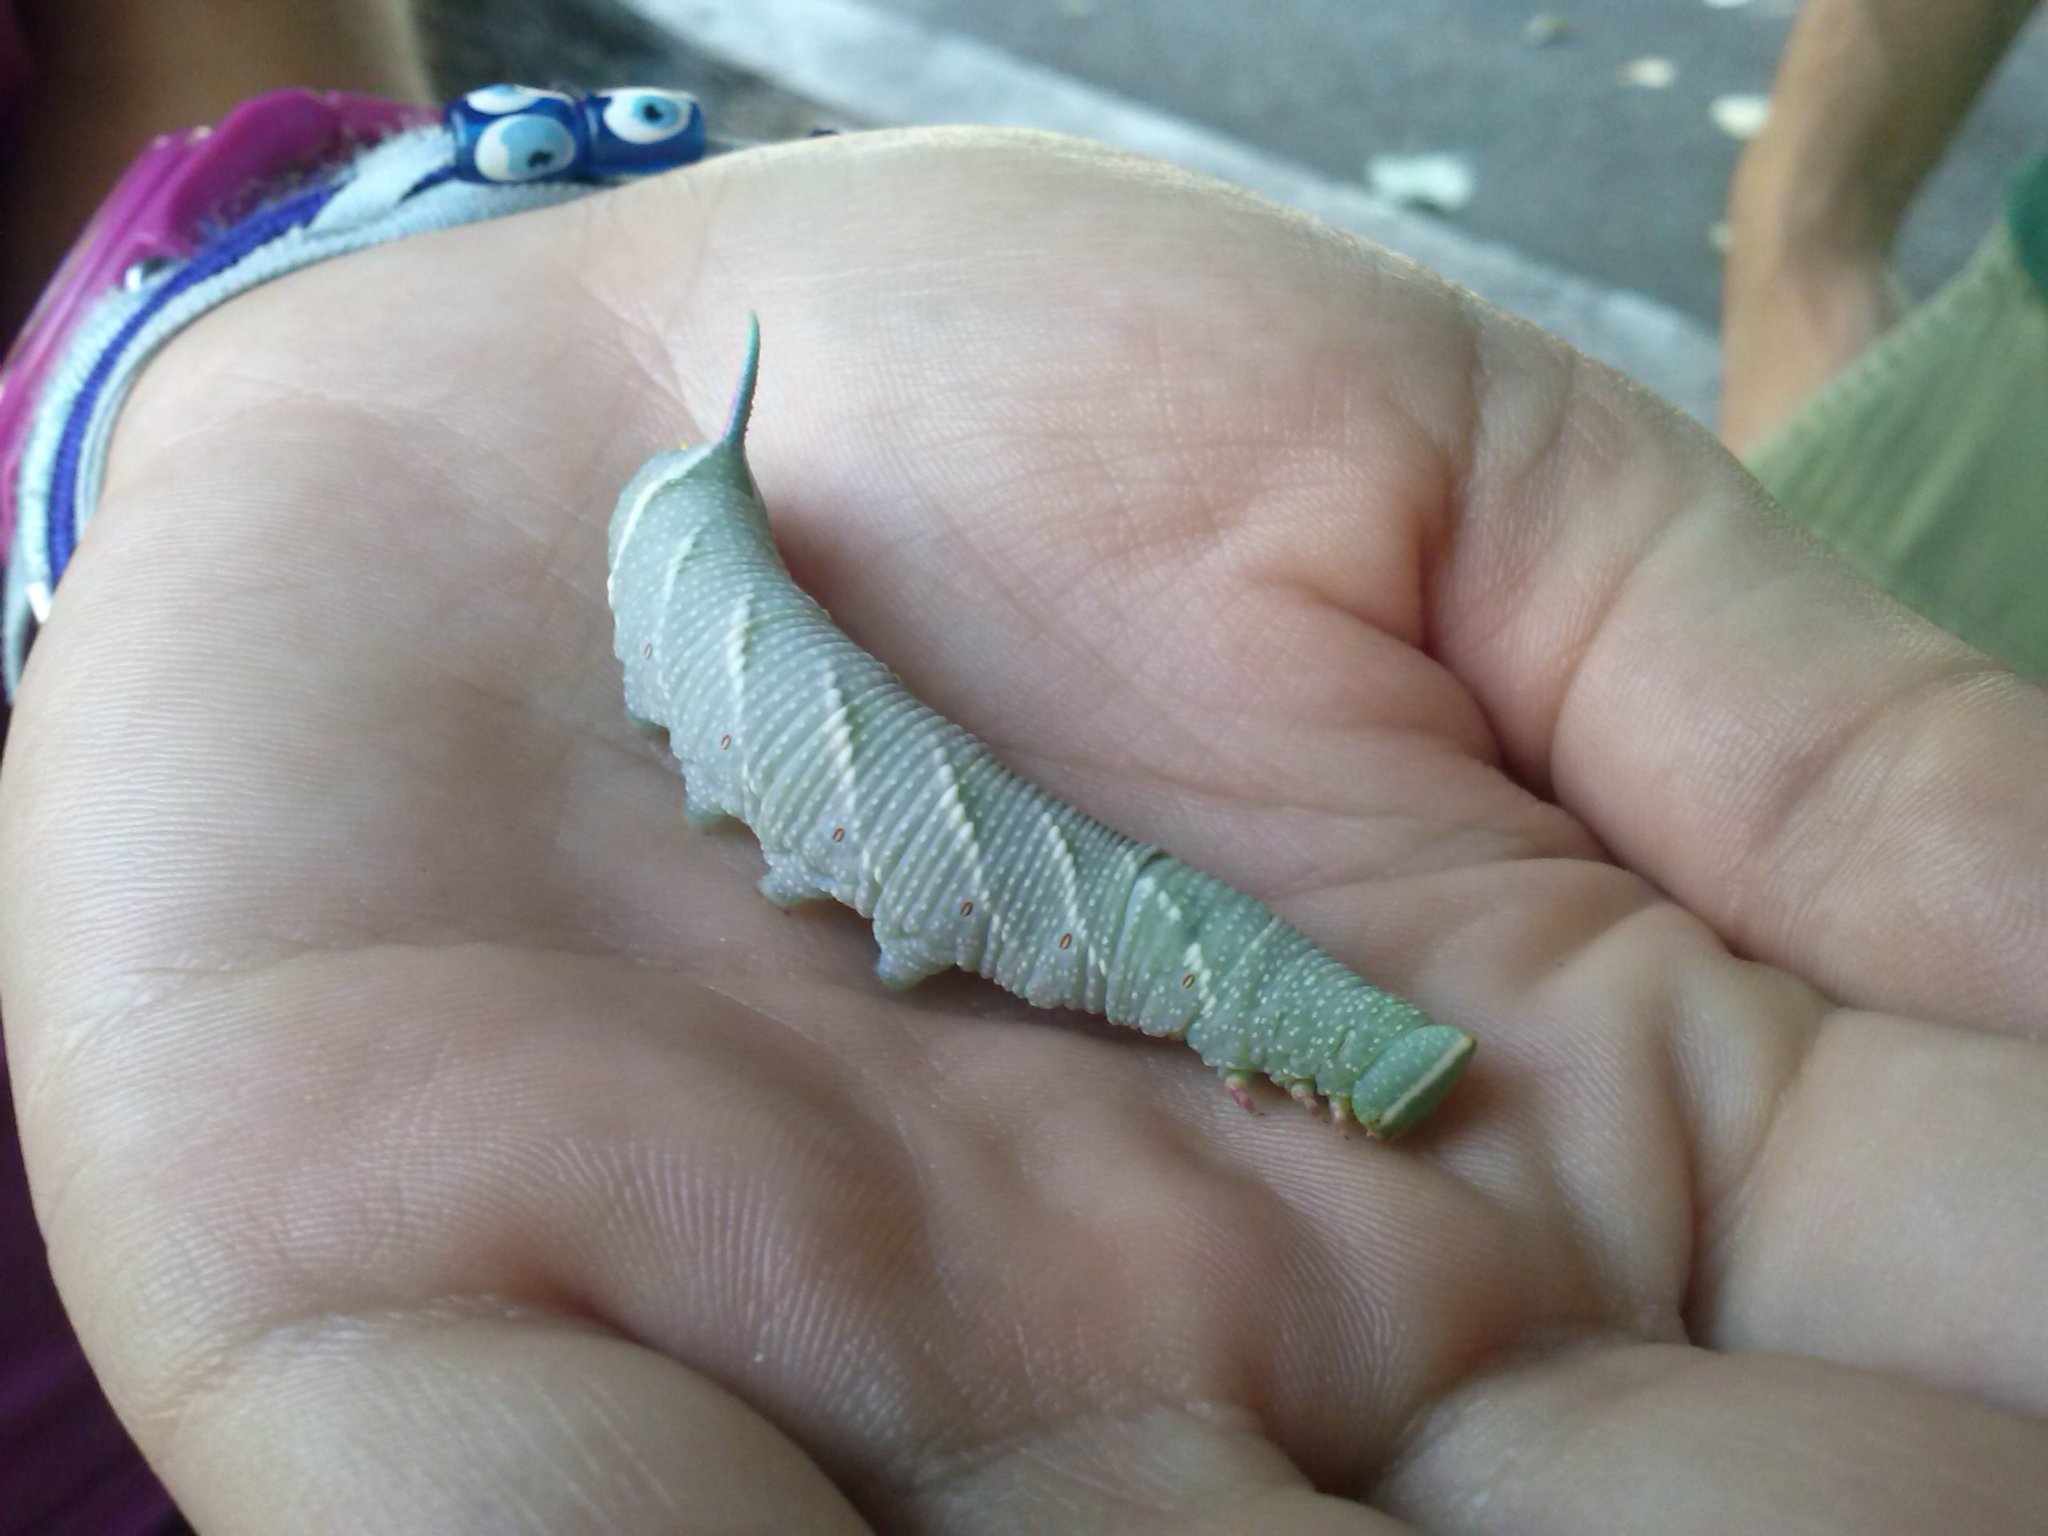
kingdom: Animalia
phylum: Arthropoda
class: Insecta
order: Lepidoptera
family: Sphingidae
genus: Mimas
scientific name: Mimas tiliae
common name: Lime hawk-moth
